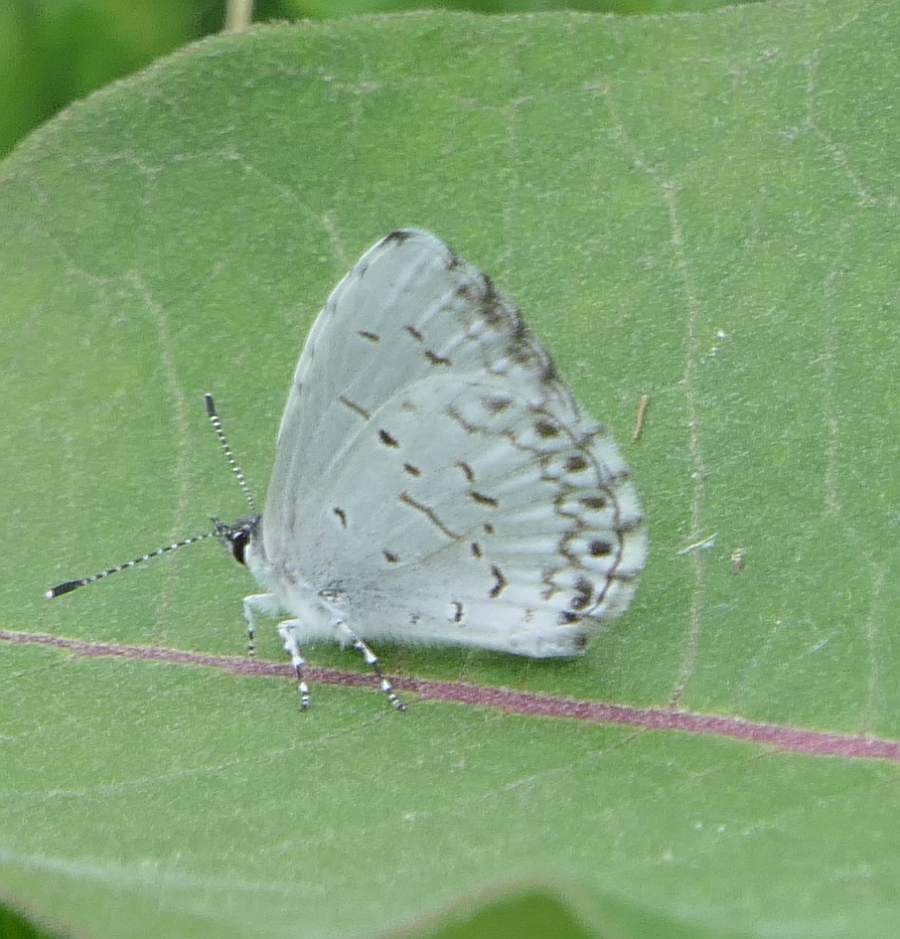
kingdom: Animalia
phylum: Arthropoda
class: Insecta
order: Lepidoptera
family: Lycaenidae
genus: Celastrina
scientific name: Celastrina lucia
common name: Lucia azure
